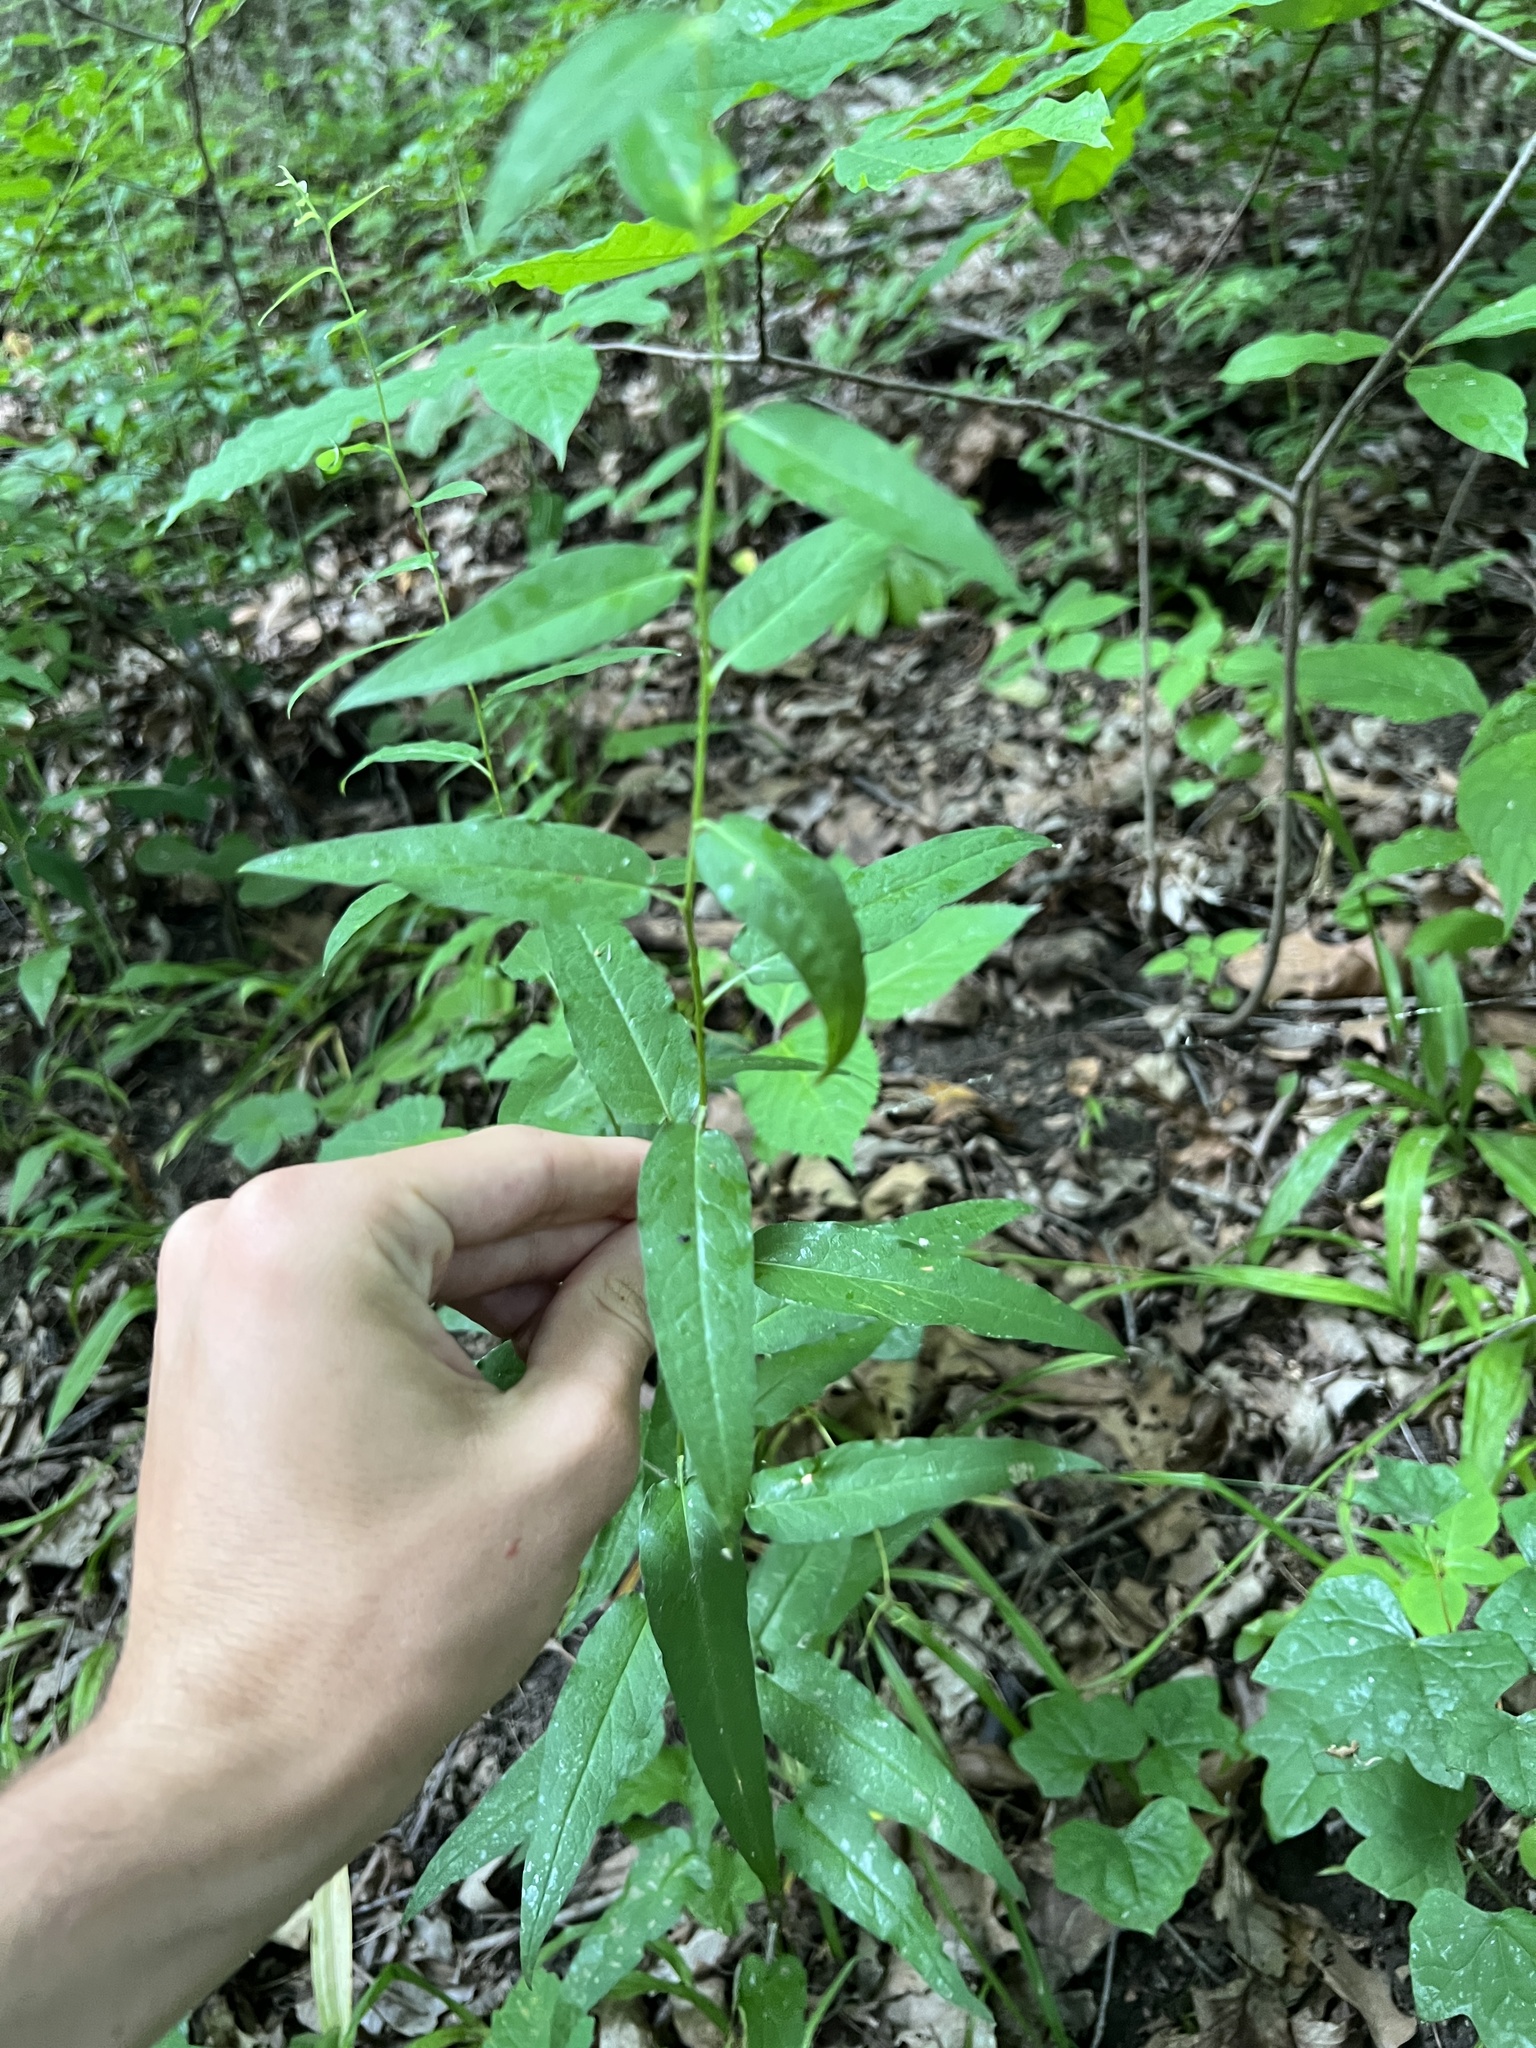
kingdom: Plantae
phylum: Tracheophyta
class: Magnoliopsida
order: Asterales
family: Asteraceae
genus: Symphyotrichum
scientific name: Symphyotrichum shortii
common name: Short's aster
